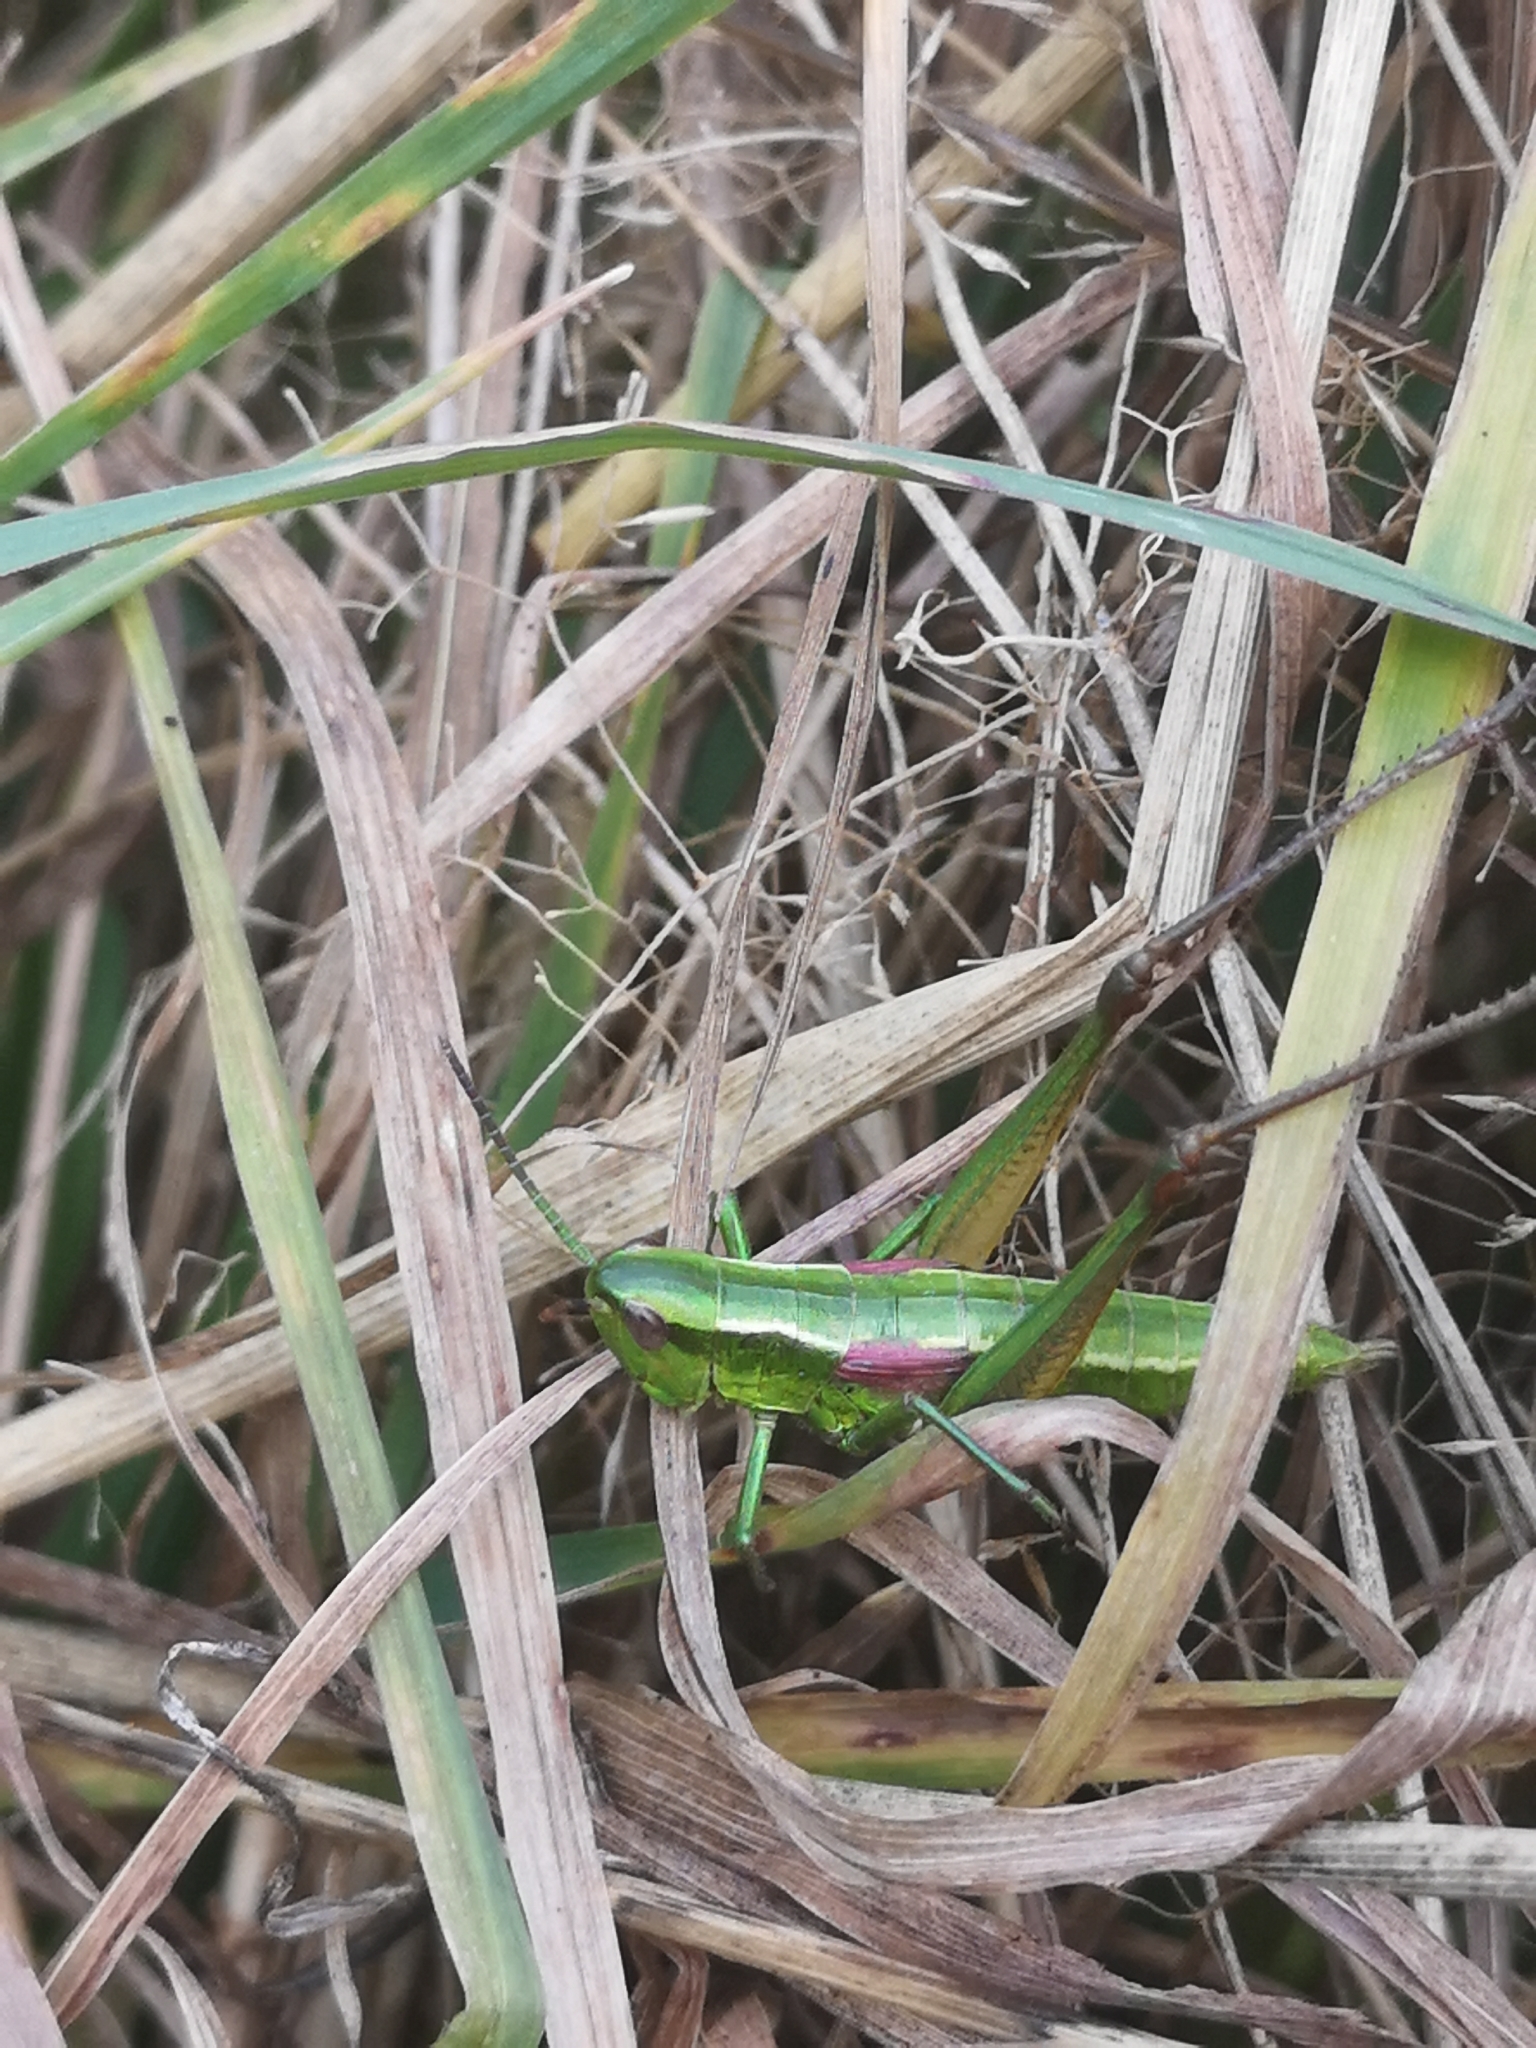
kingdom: Animalia
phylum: Arthropoda
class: Insecta
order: Orthoptera
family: Acrididae
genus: Euthystira
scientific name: Euthystira brachyptera
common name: Small gold grasshopper
